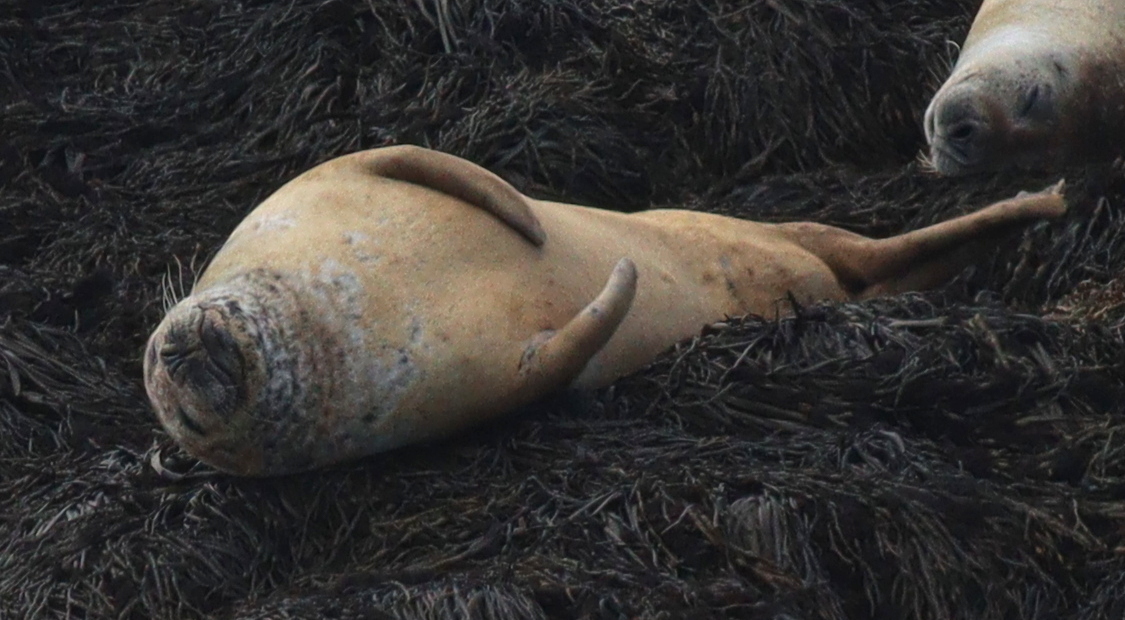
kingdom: Animalia
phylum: Chordata
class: Mammalia
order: Carnivora
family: Phocidae
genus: Phoca
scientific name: Phoca vitulina
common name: Harbor seal
